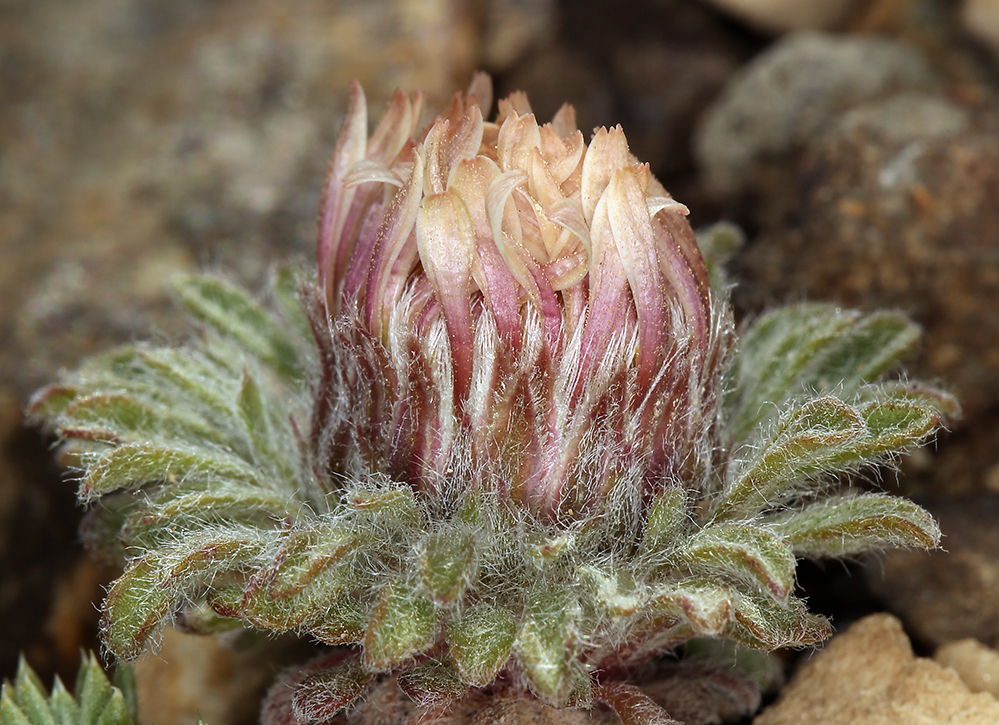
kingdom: Plantae
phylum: Tracheophyta
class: Magnoliopsida
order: Asterales
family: Asteraceae
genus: Townsendia
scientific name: Townsendia condensata
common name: Alpine townsend daisy
